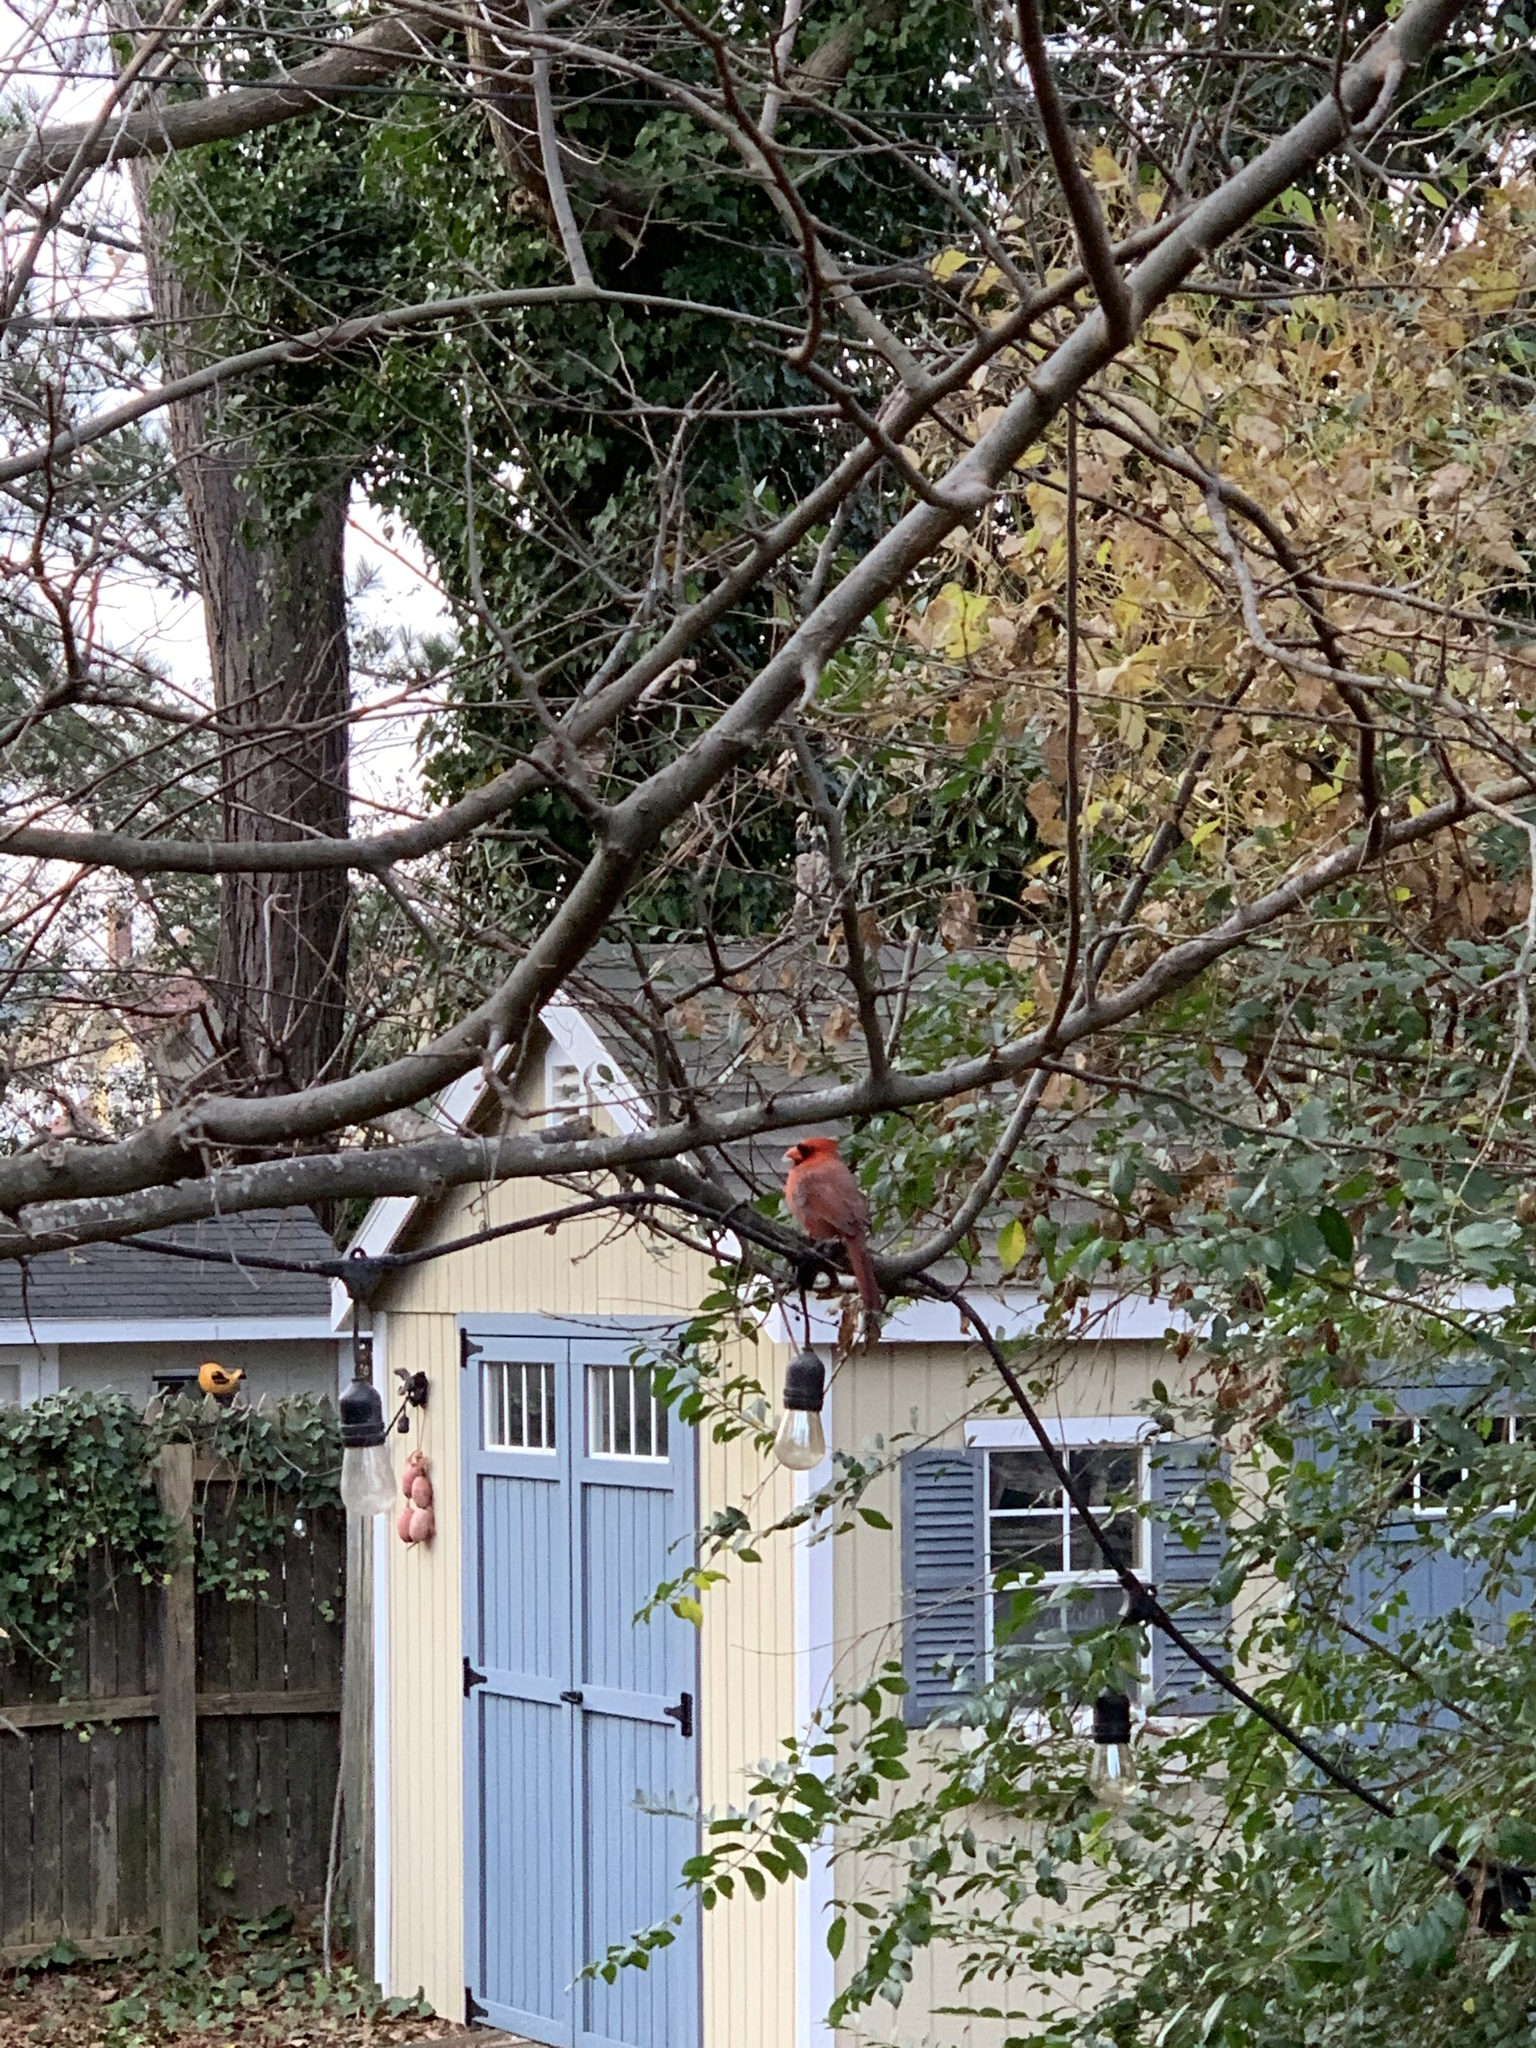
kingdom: Animalia
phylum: Chordata
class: Aves
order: Passeriformes
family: Cardinalidae
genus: Cardinalis
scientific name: Cardinalis cardinalis
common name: Northern cardinal
